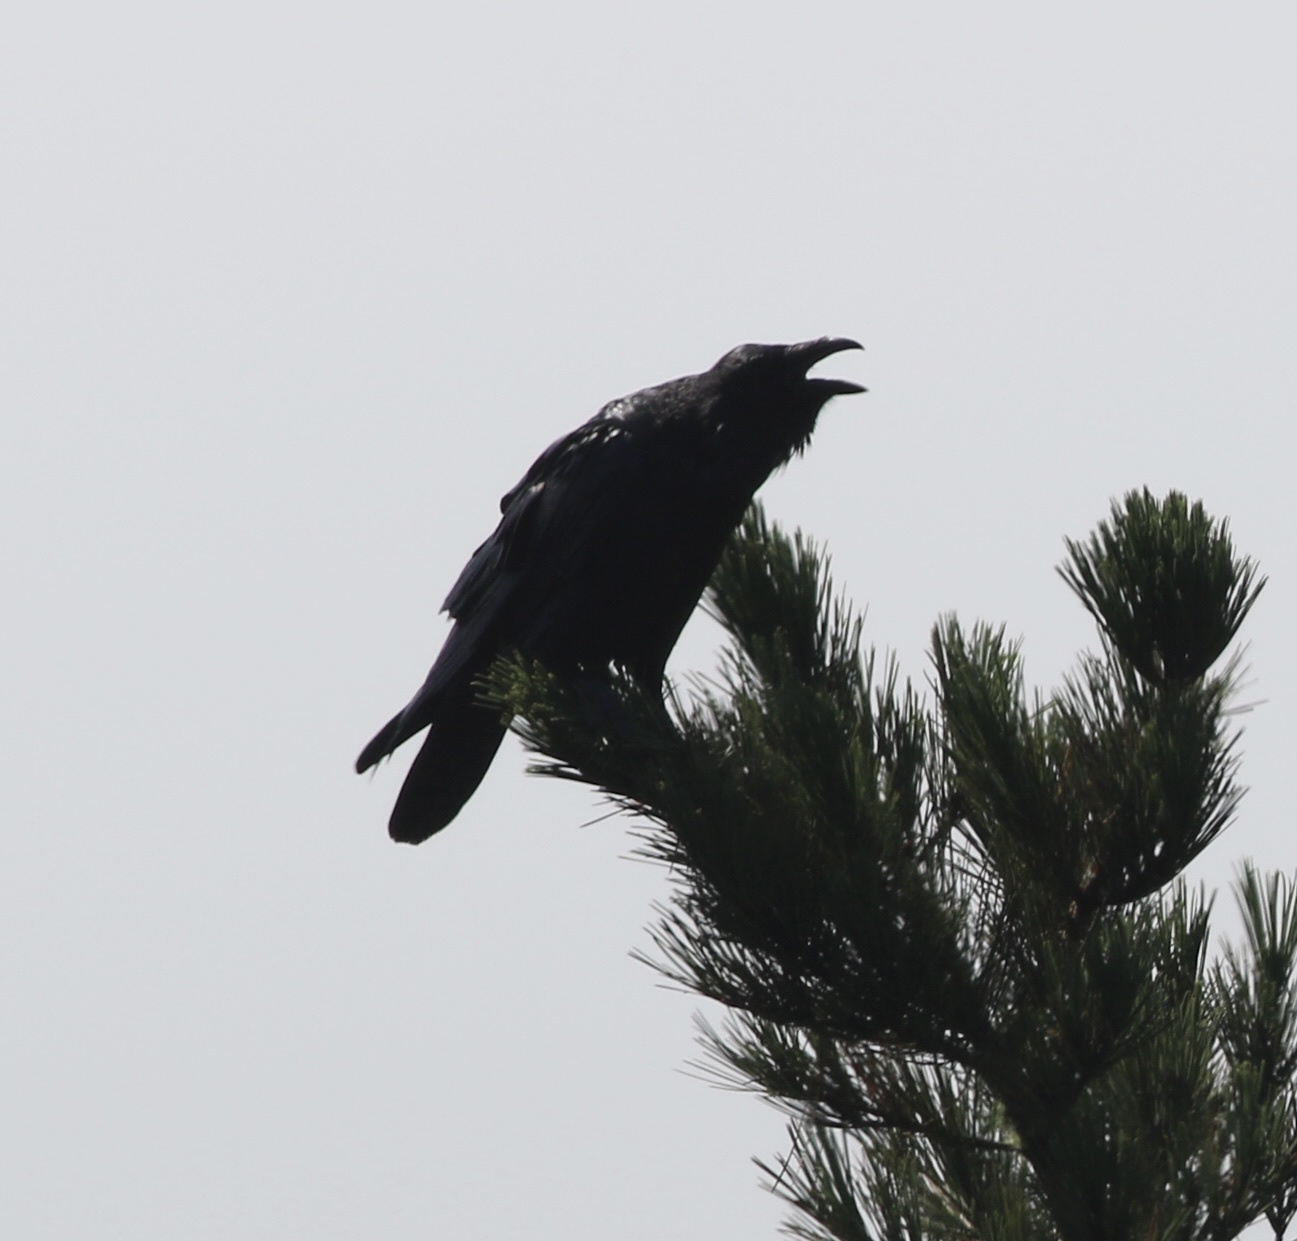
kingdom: Animalia
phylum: Chordata
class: Aves
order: Passeriformes
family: Corvidae
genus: Corvus
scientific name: Corvus corax
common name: Common raven
